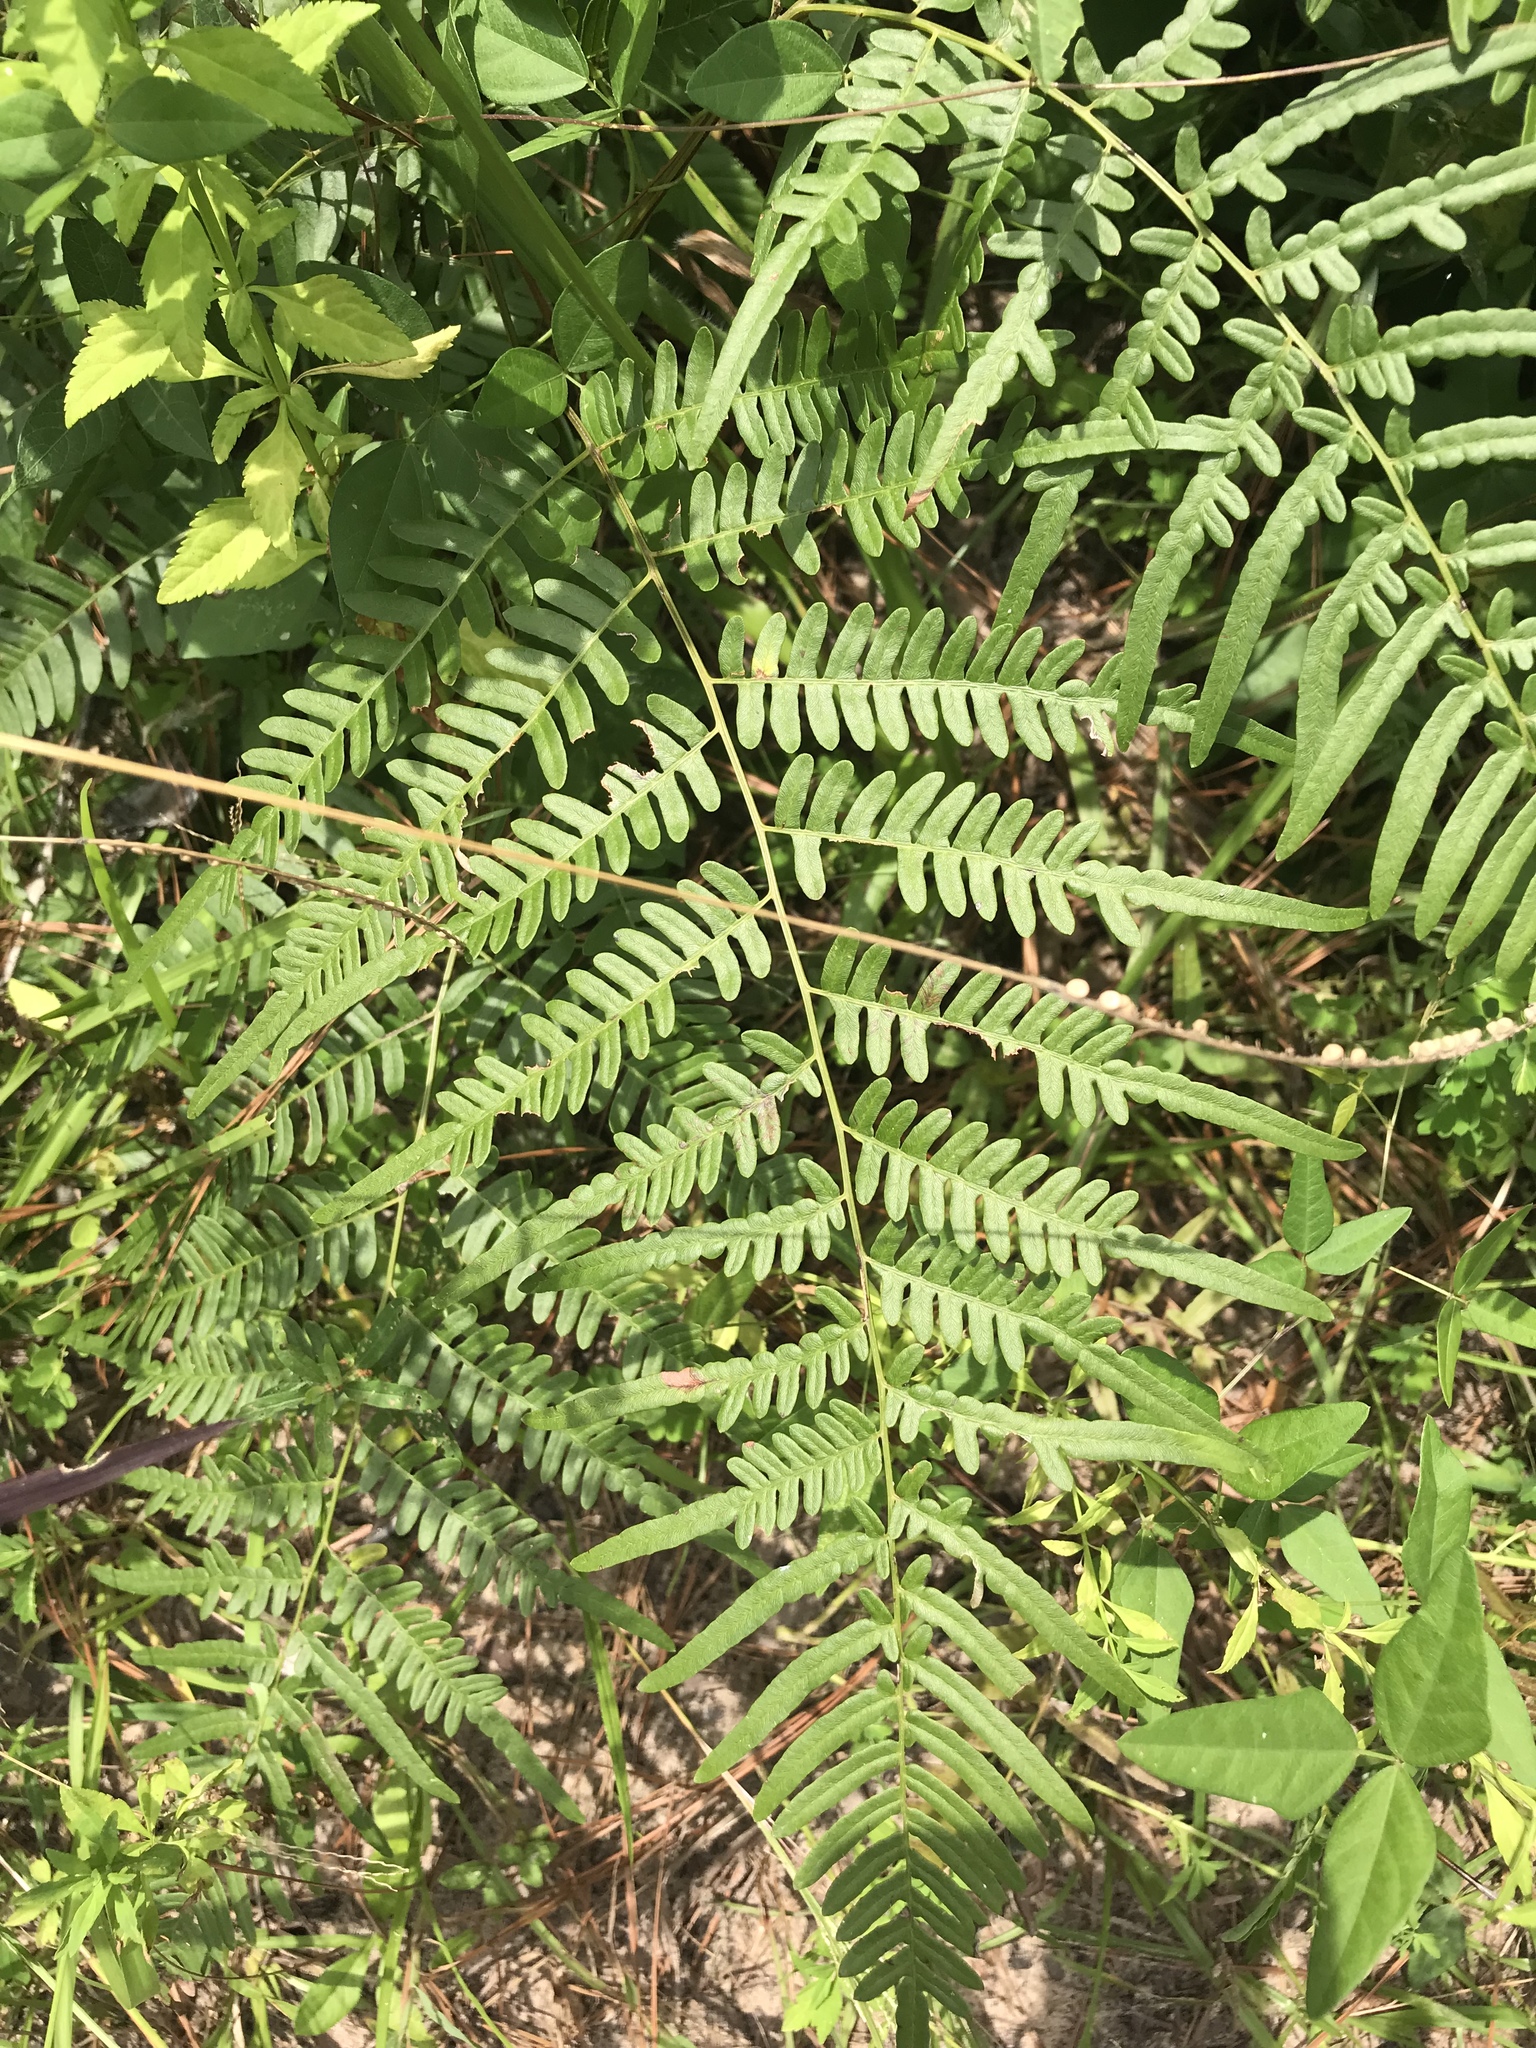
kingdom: Plantae
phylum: Tracheophyta
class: Polypodiopsida
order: Polypodiales
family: Dennstaedtiaceae
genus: Pteridium
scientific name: Pteridium aquilinum
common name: Bracken
